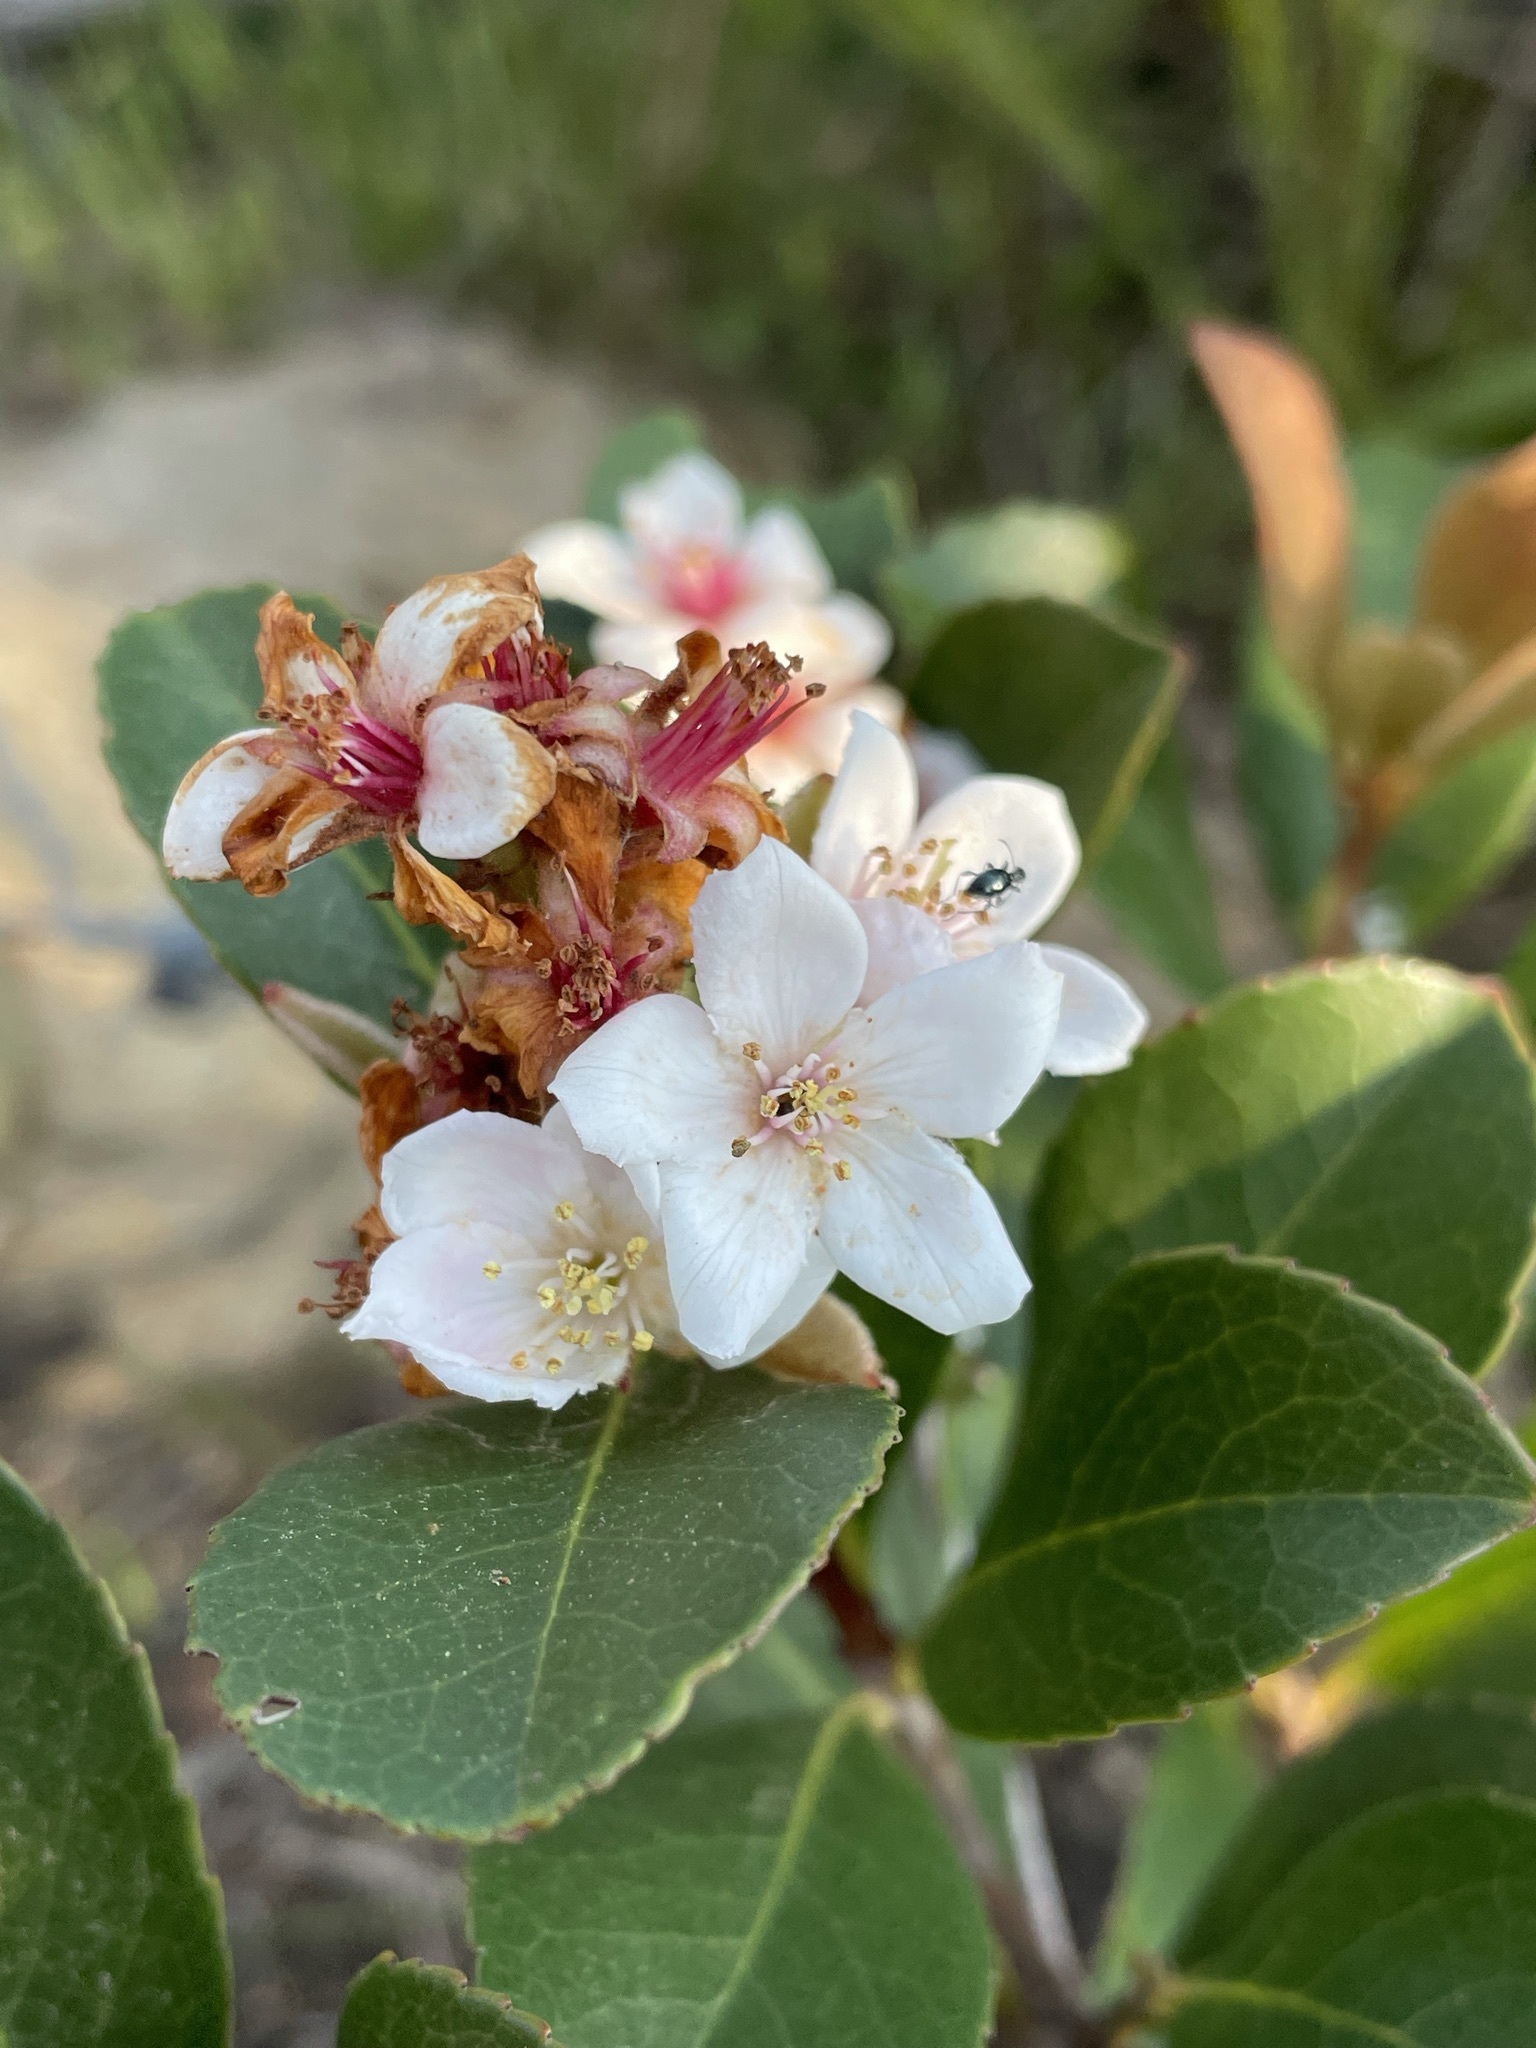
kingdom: Plantae
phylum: Tracheophyta
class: Magnoliopsida
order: Rosales
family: Rosaceae
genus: Rhaphiolepis
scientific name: Rhaphiolepis indica
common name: India-hawthorn
